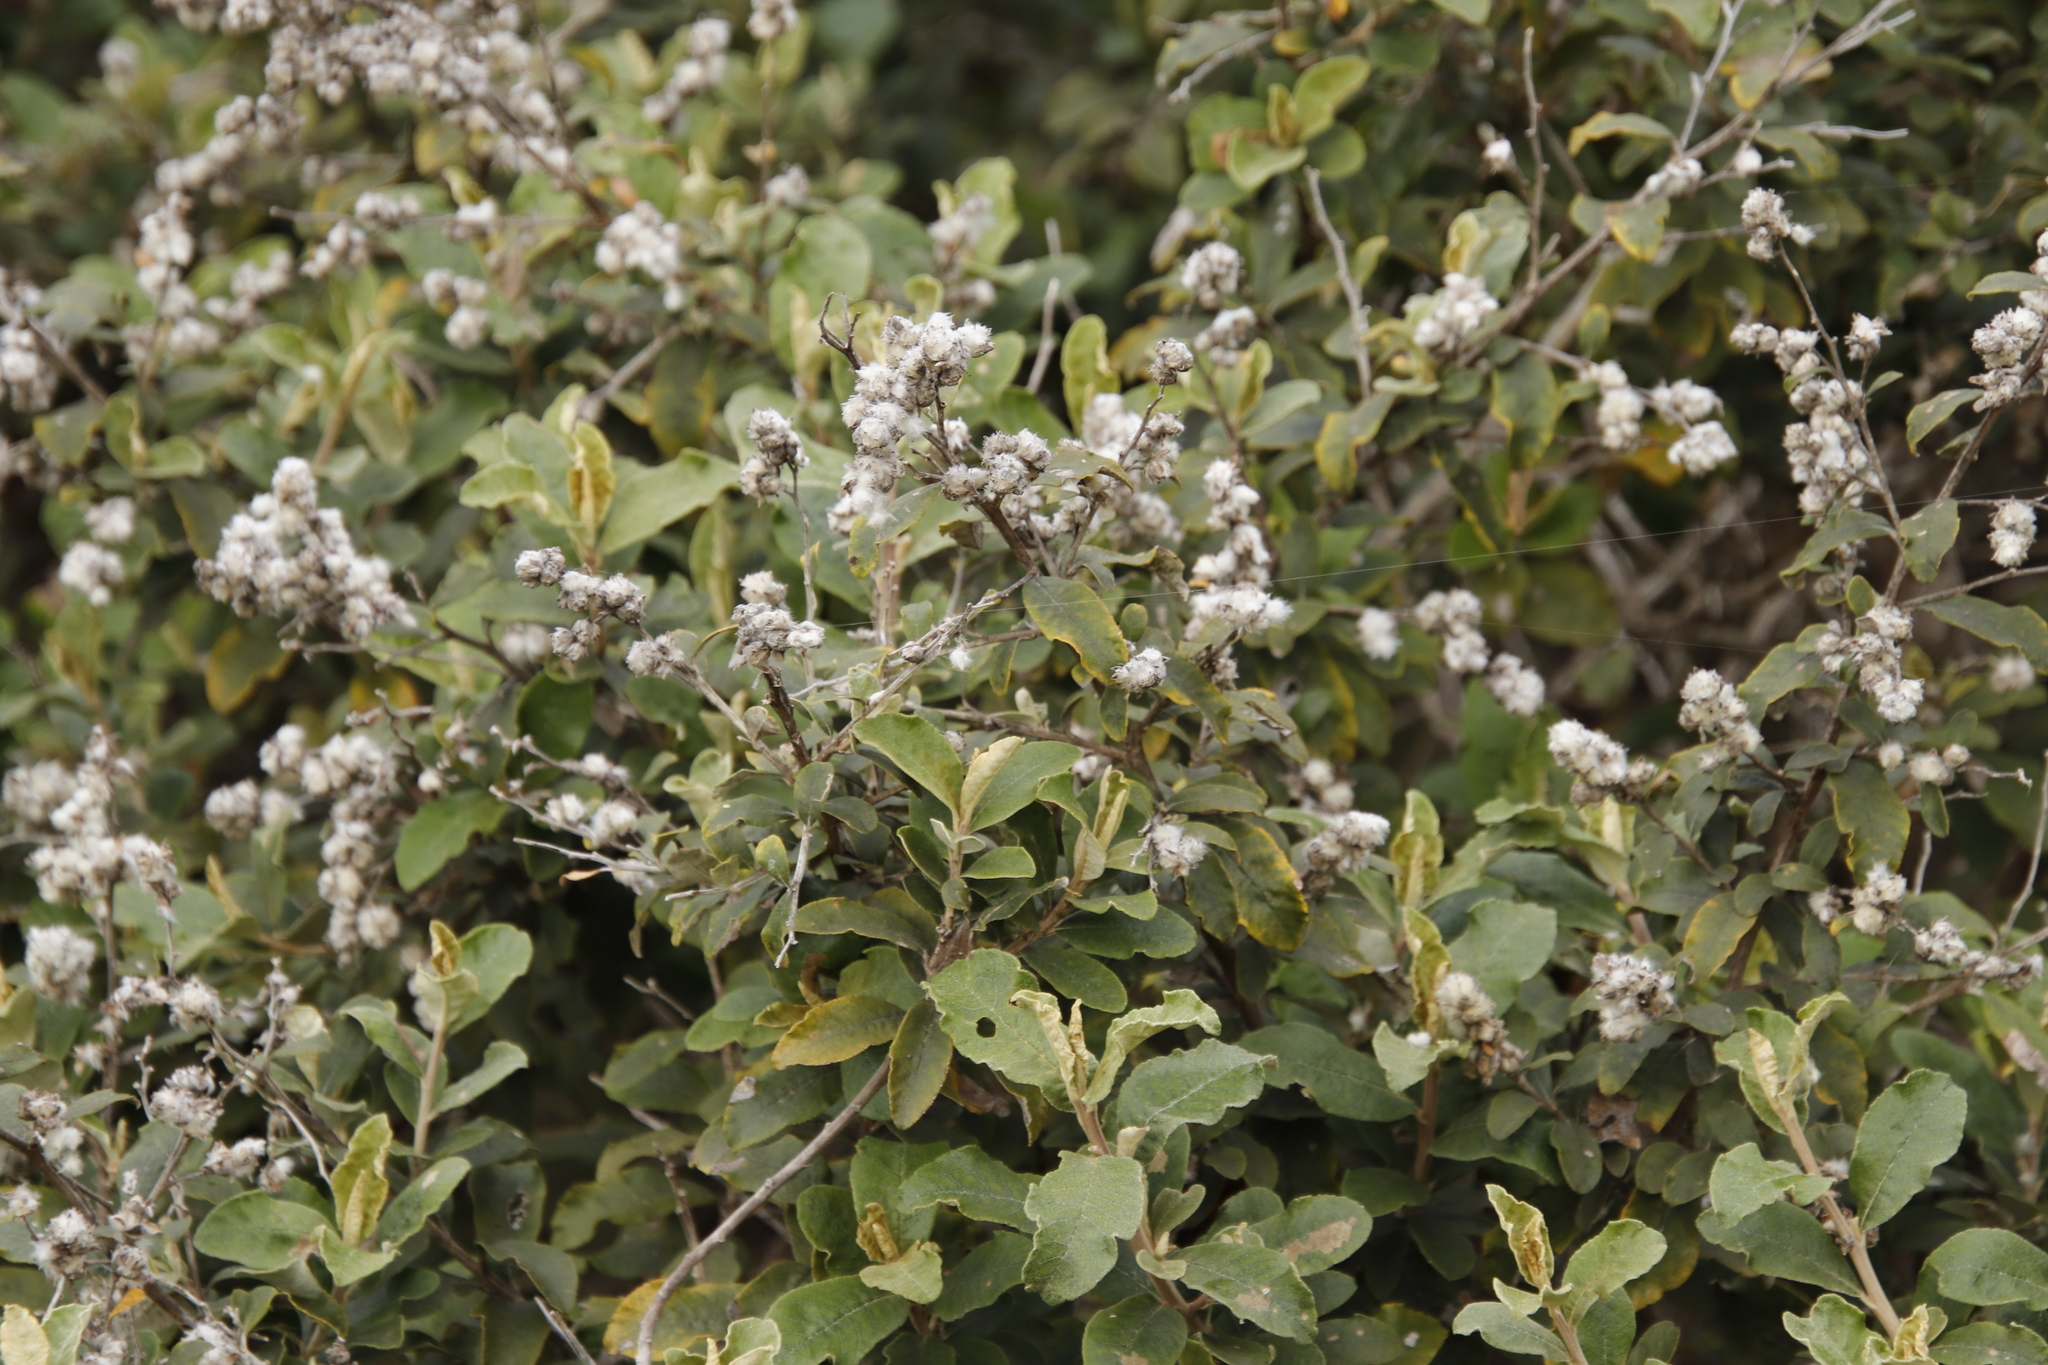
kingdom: Plantae
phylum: Tracheophyta
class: Magnoliopsida
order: Asterales
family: Asteraceae
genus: Tarchonanthus
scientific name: Tarchonanthus littoralis
